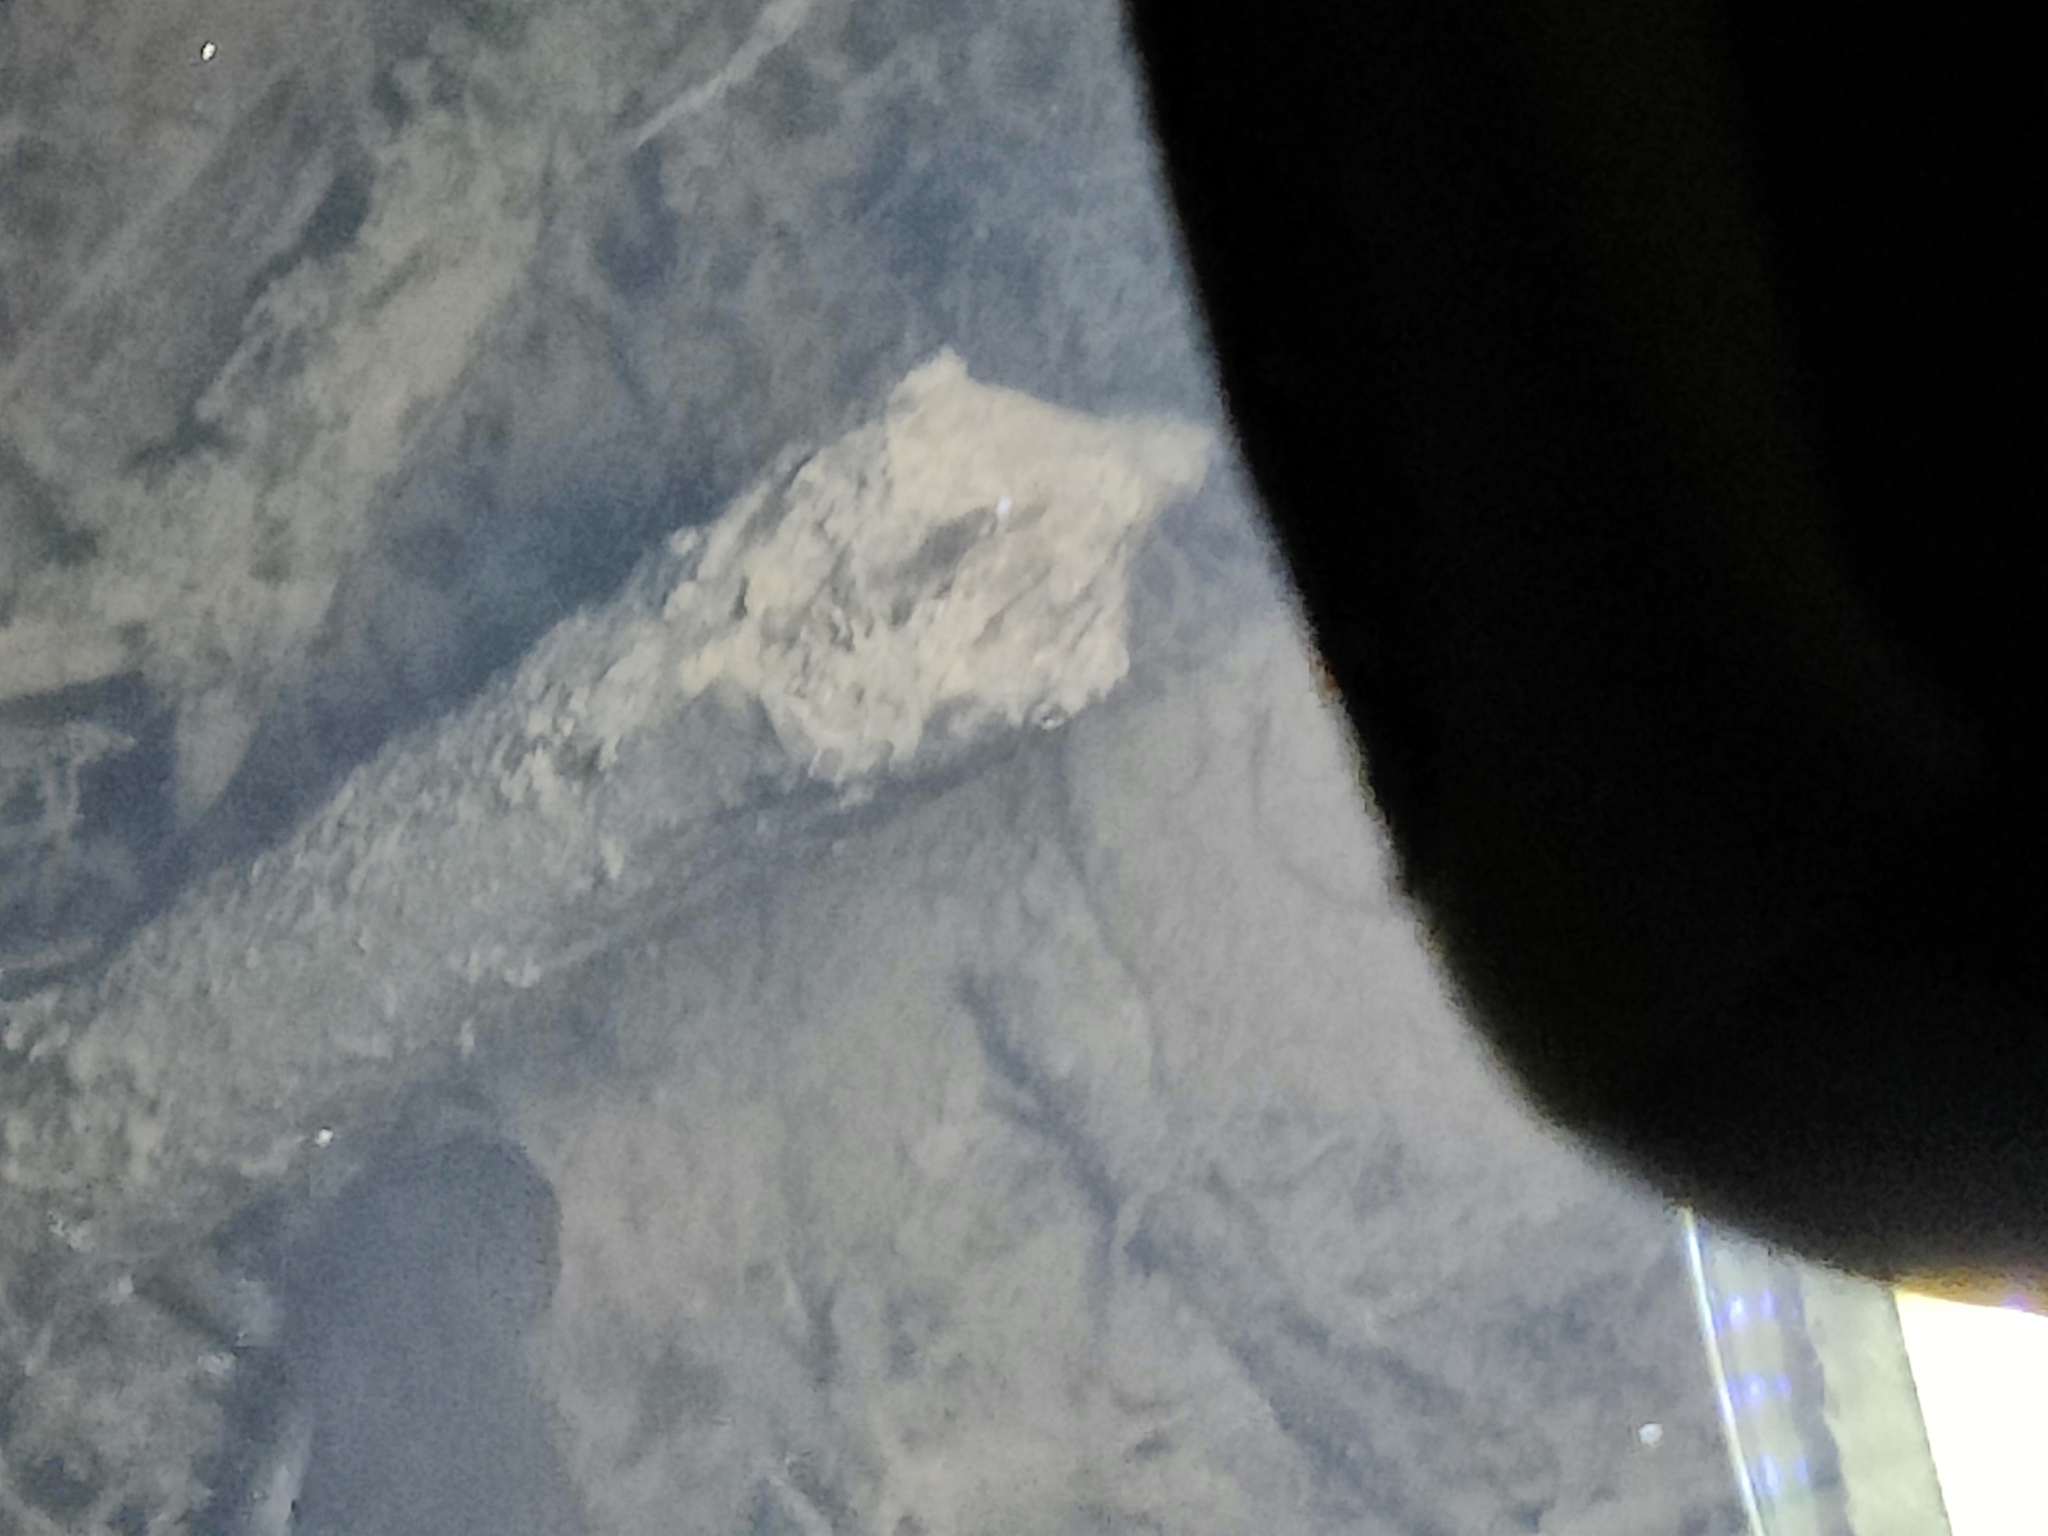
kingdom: Animalia
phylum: Chordata
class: Amphibia
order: Caudata
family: Salamandridae
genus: Lissotriton
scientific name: Lissotriton helveticus
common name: Palmate newt
